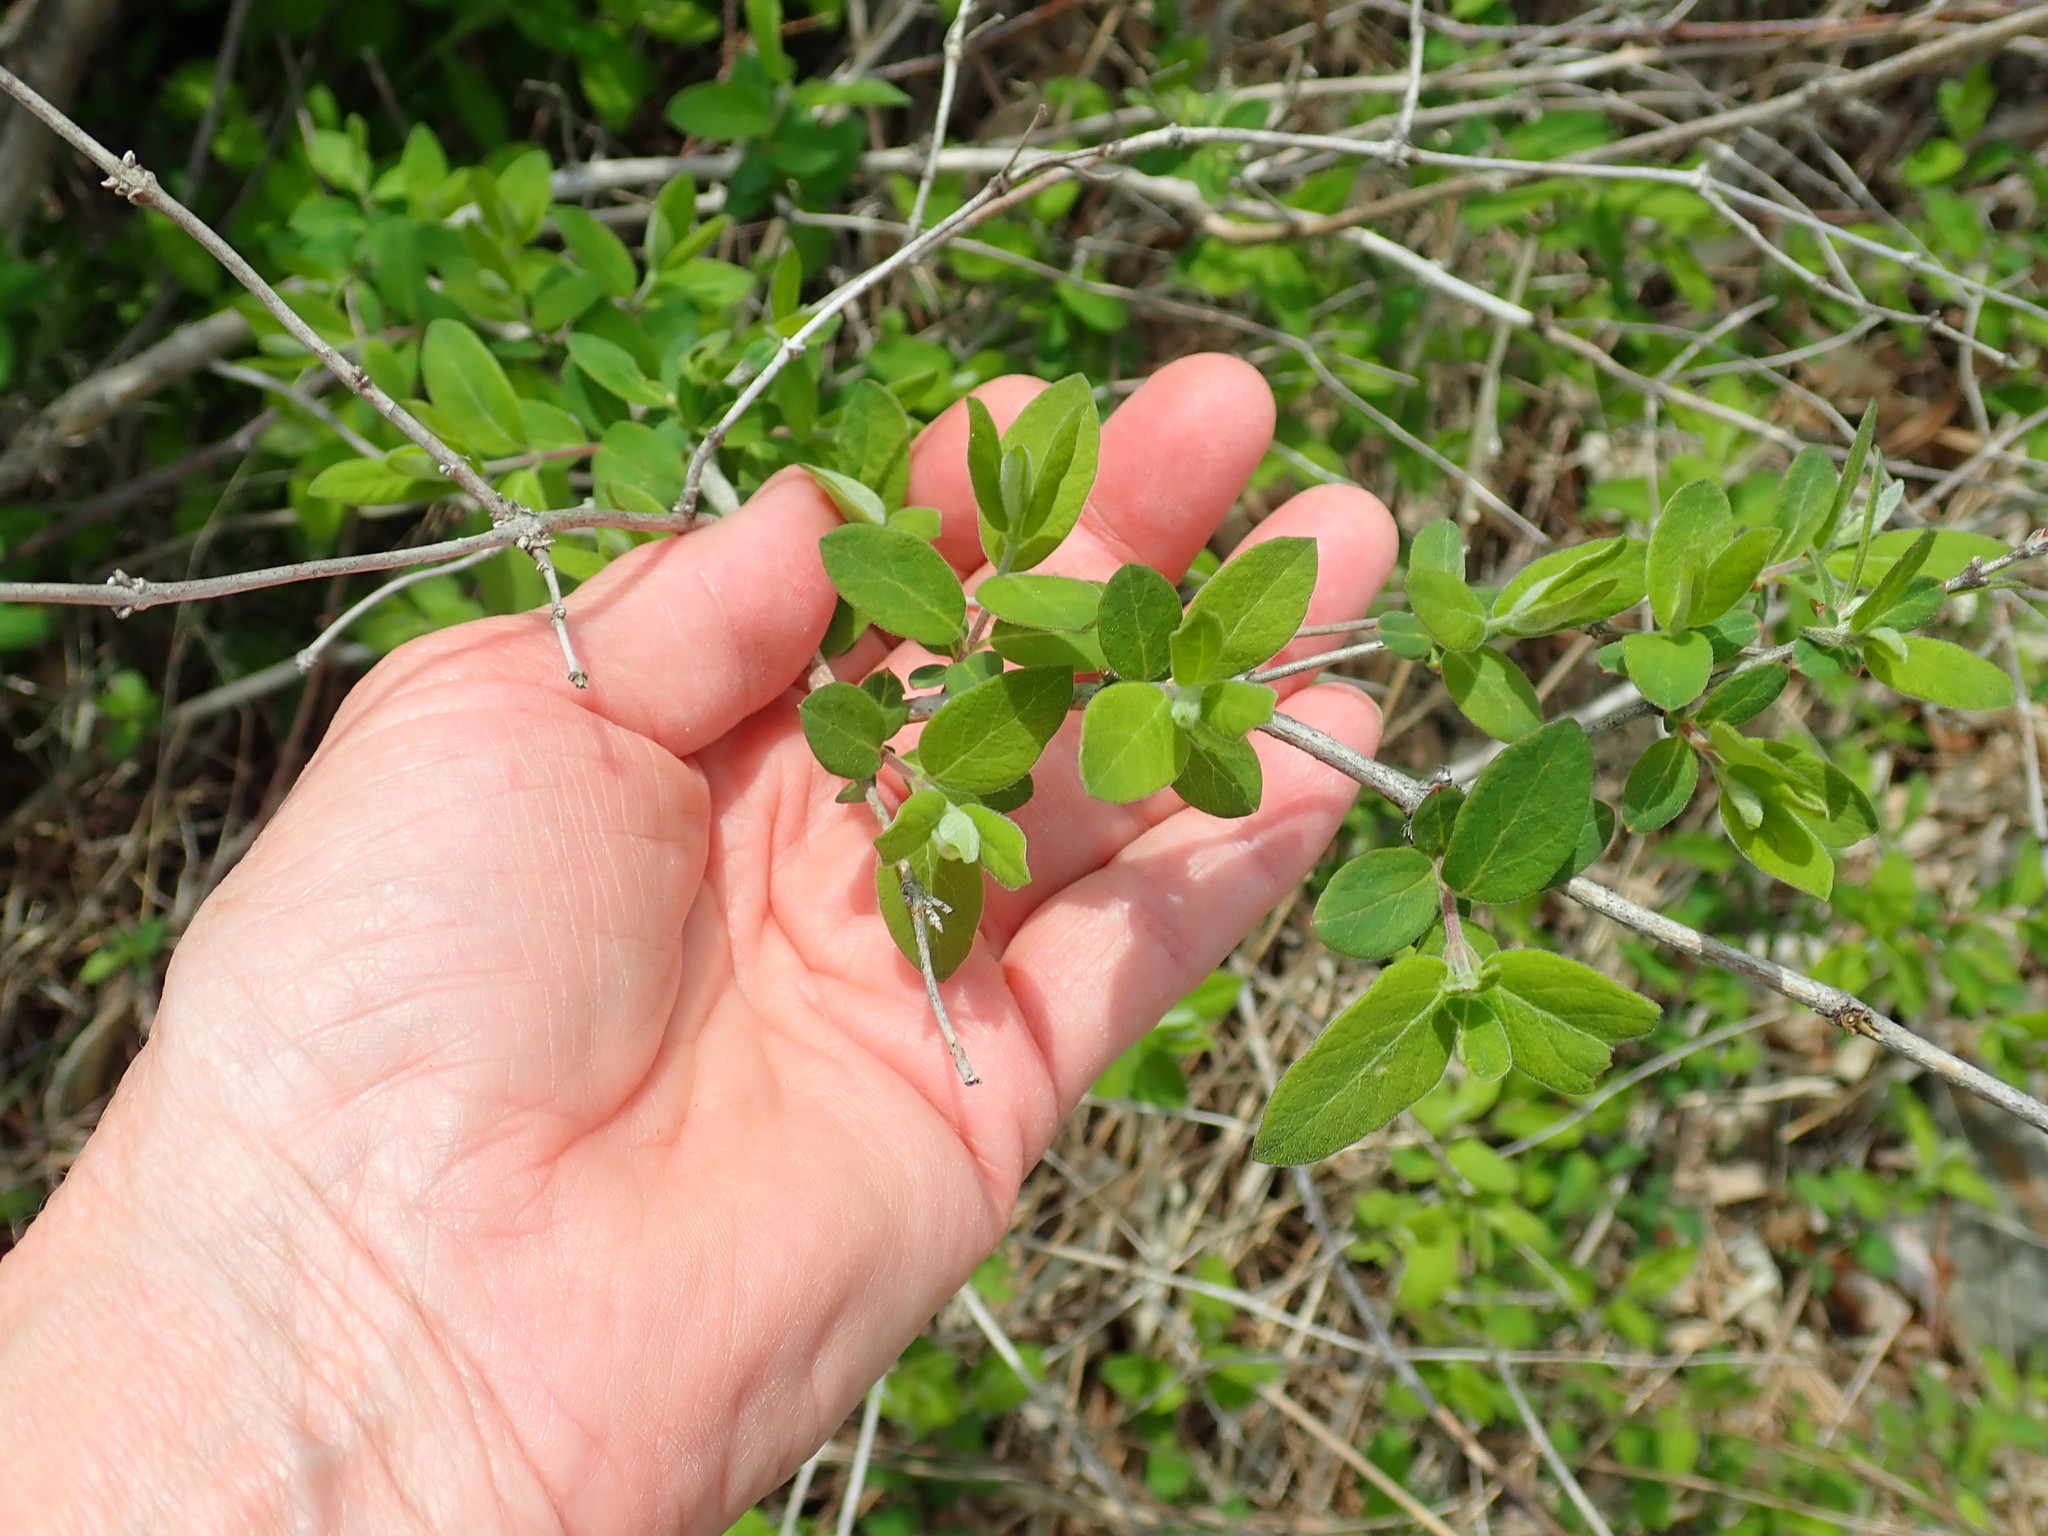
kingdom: Plantae
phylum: Tracheophyta
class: Magnoliopsida
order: Dipsacales
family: Caprifoliaceae
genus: Lonicera
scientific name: Lonicera
